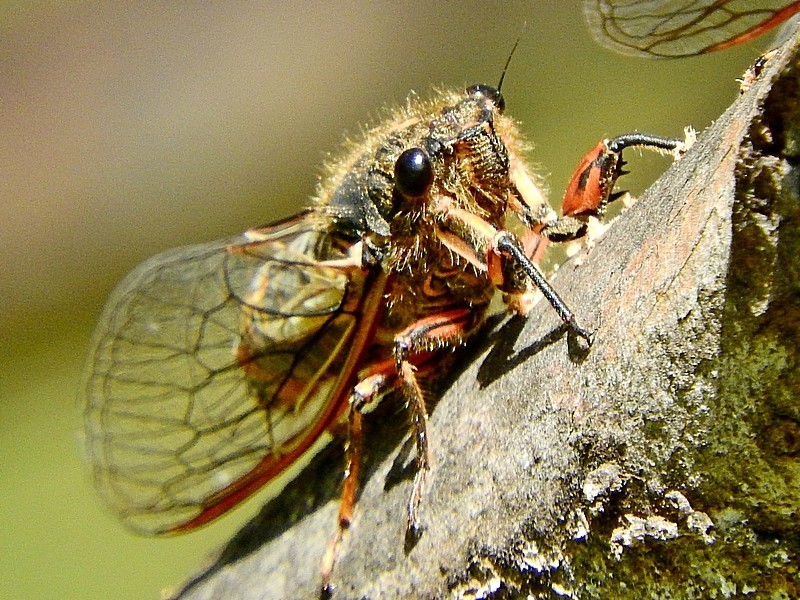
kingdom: Animalia
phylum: Arthropoda
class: Insecta
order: Hemiptera
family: Cicadidae
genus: Yoyetta
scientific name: Yoyetta abdominalis
